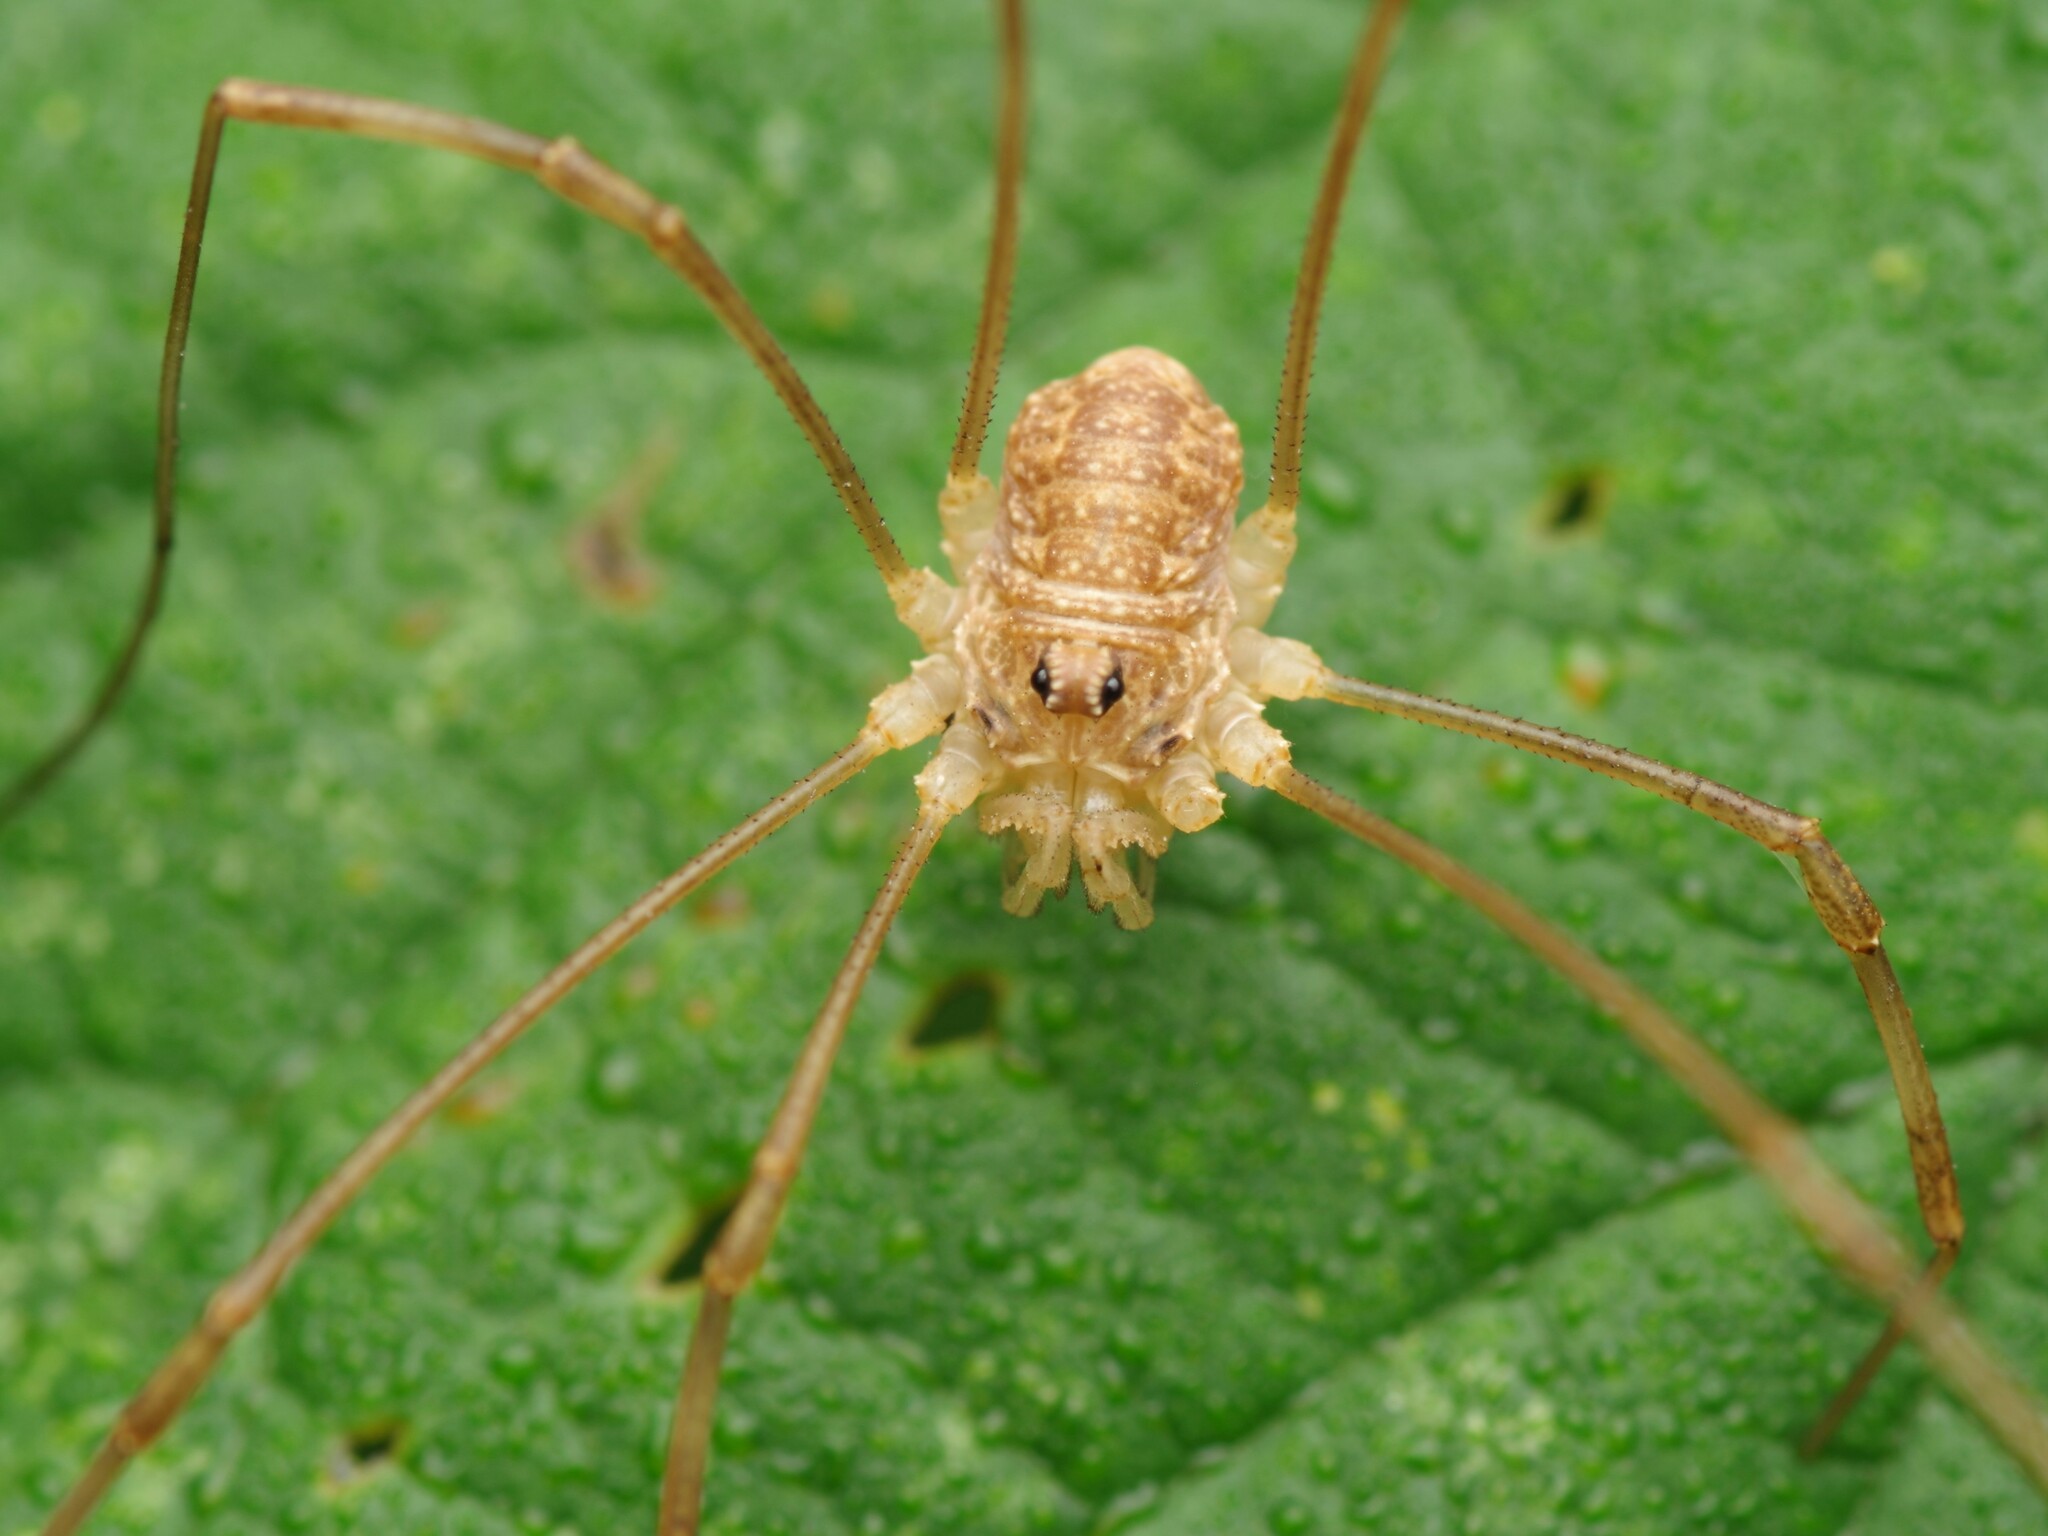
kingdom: Animalia
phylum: Arthropoda
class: Arachnida
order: Opiliones
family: Phalangiidae
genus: Rilaena
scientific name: Rilaena triangularis
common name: Spring harvestman
